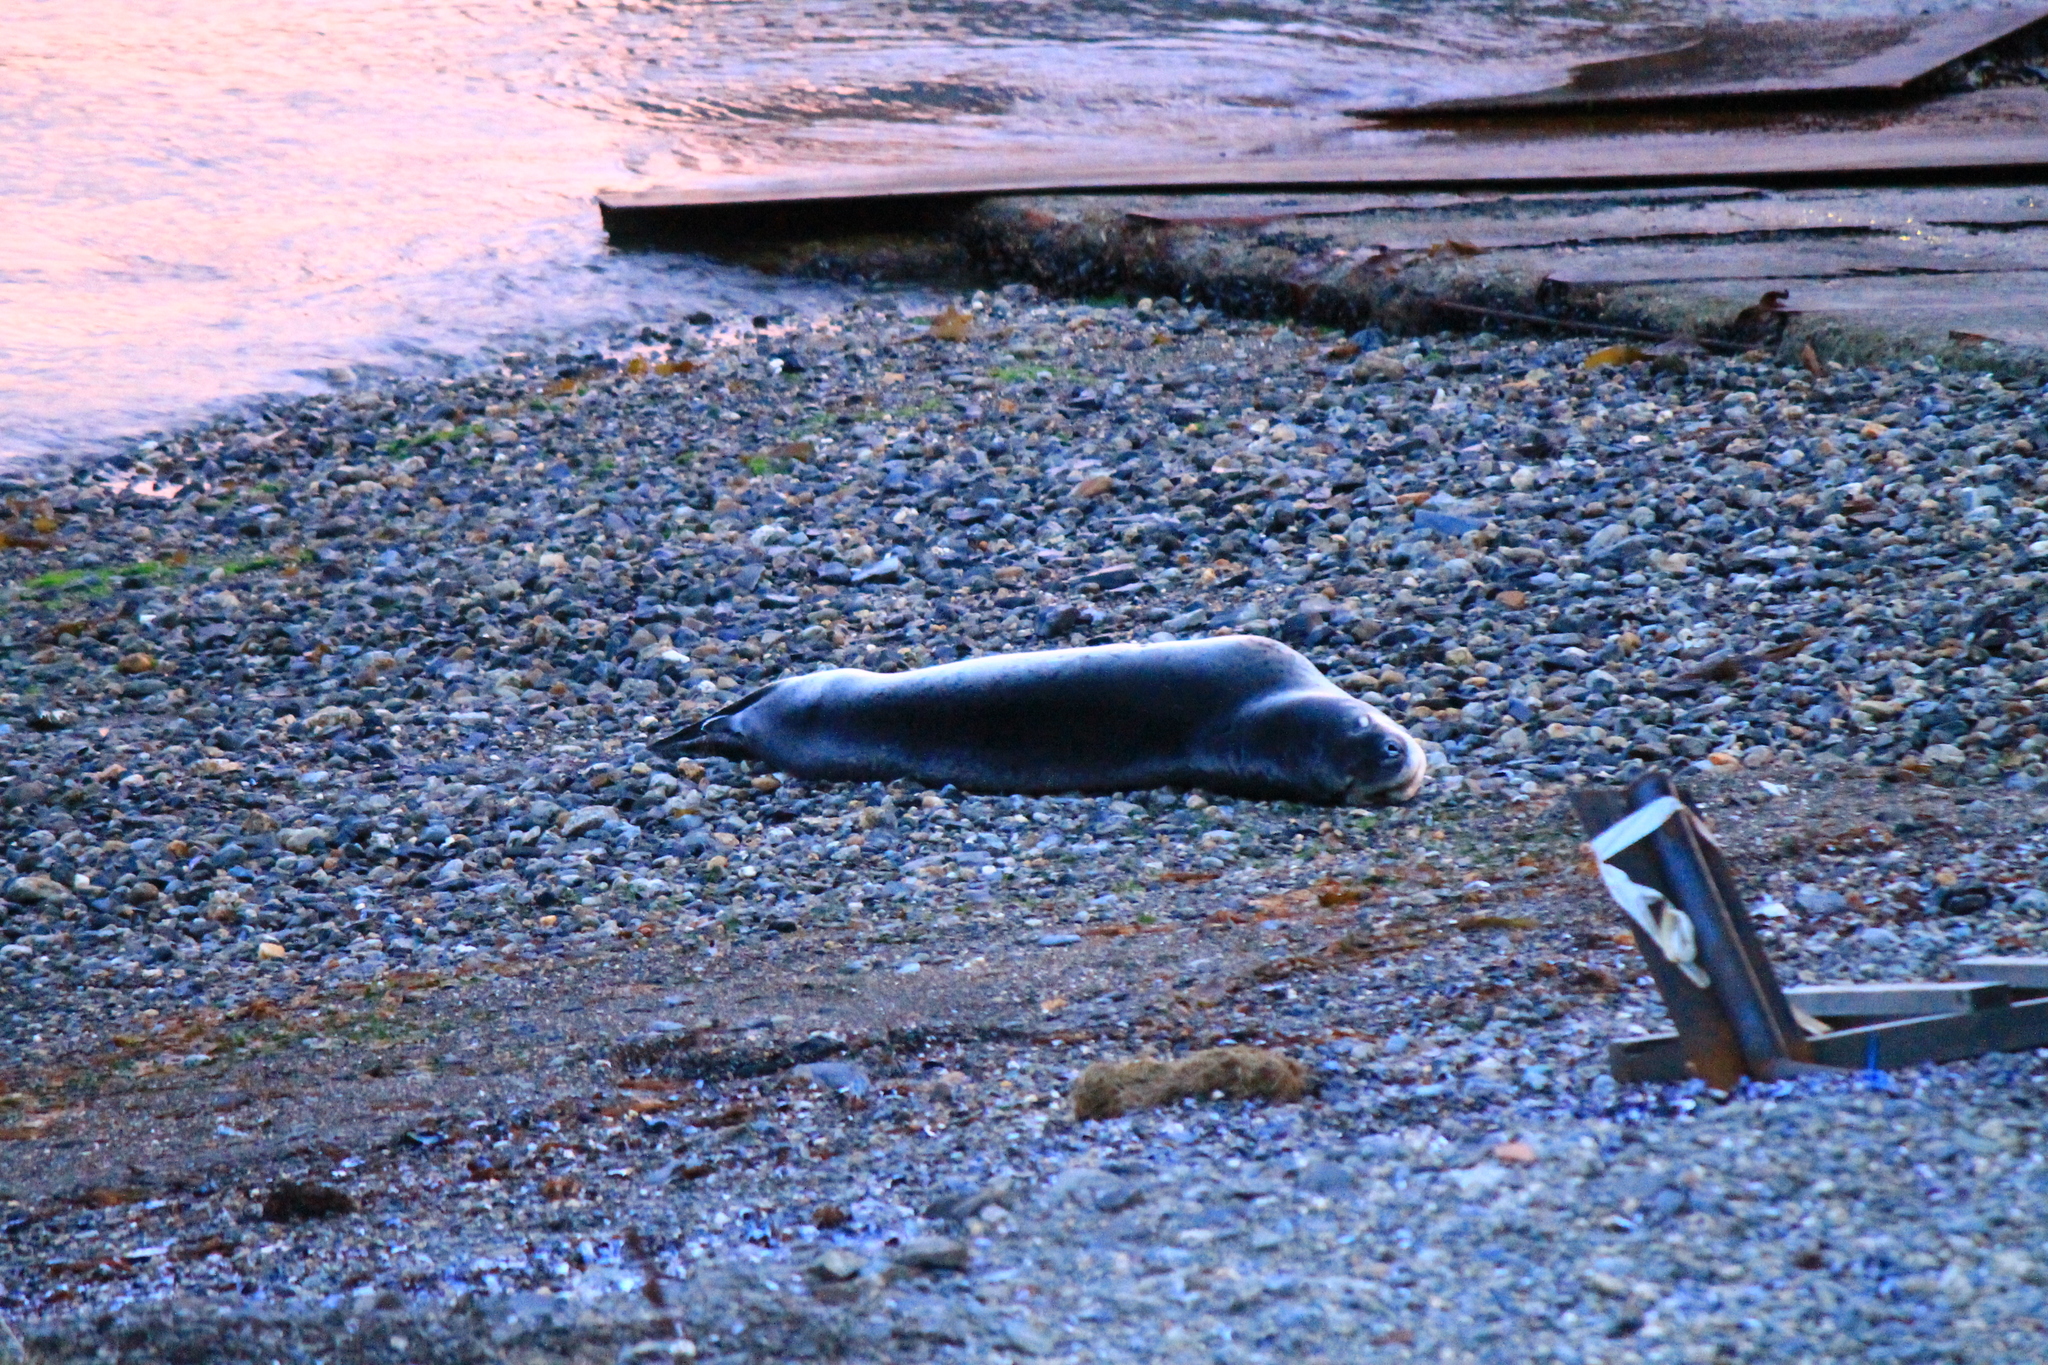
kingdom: Animalia
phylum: Chordata
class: Mammalia
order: Carnivora
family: Phocidae
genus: Hydrurga
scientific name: Hydrurga leptonyx
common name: Leopard seal
